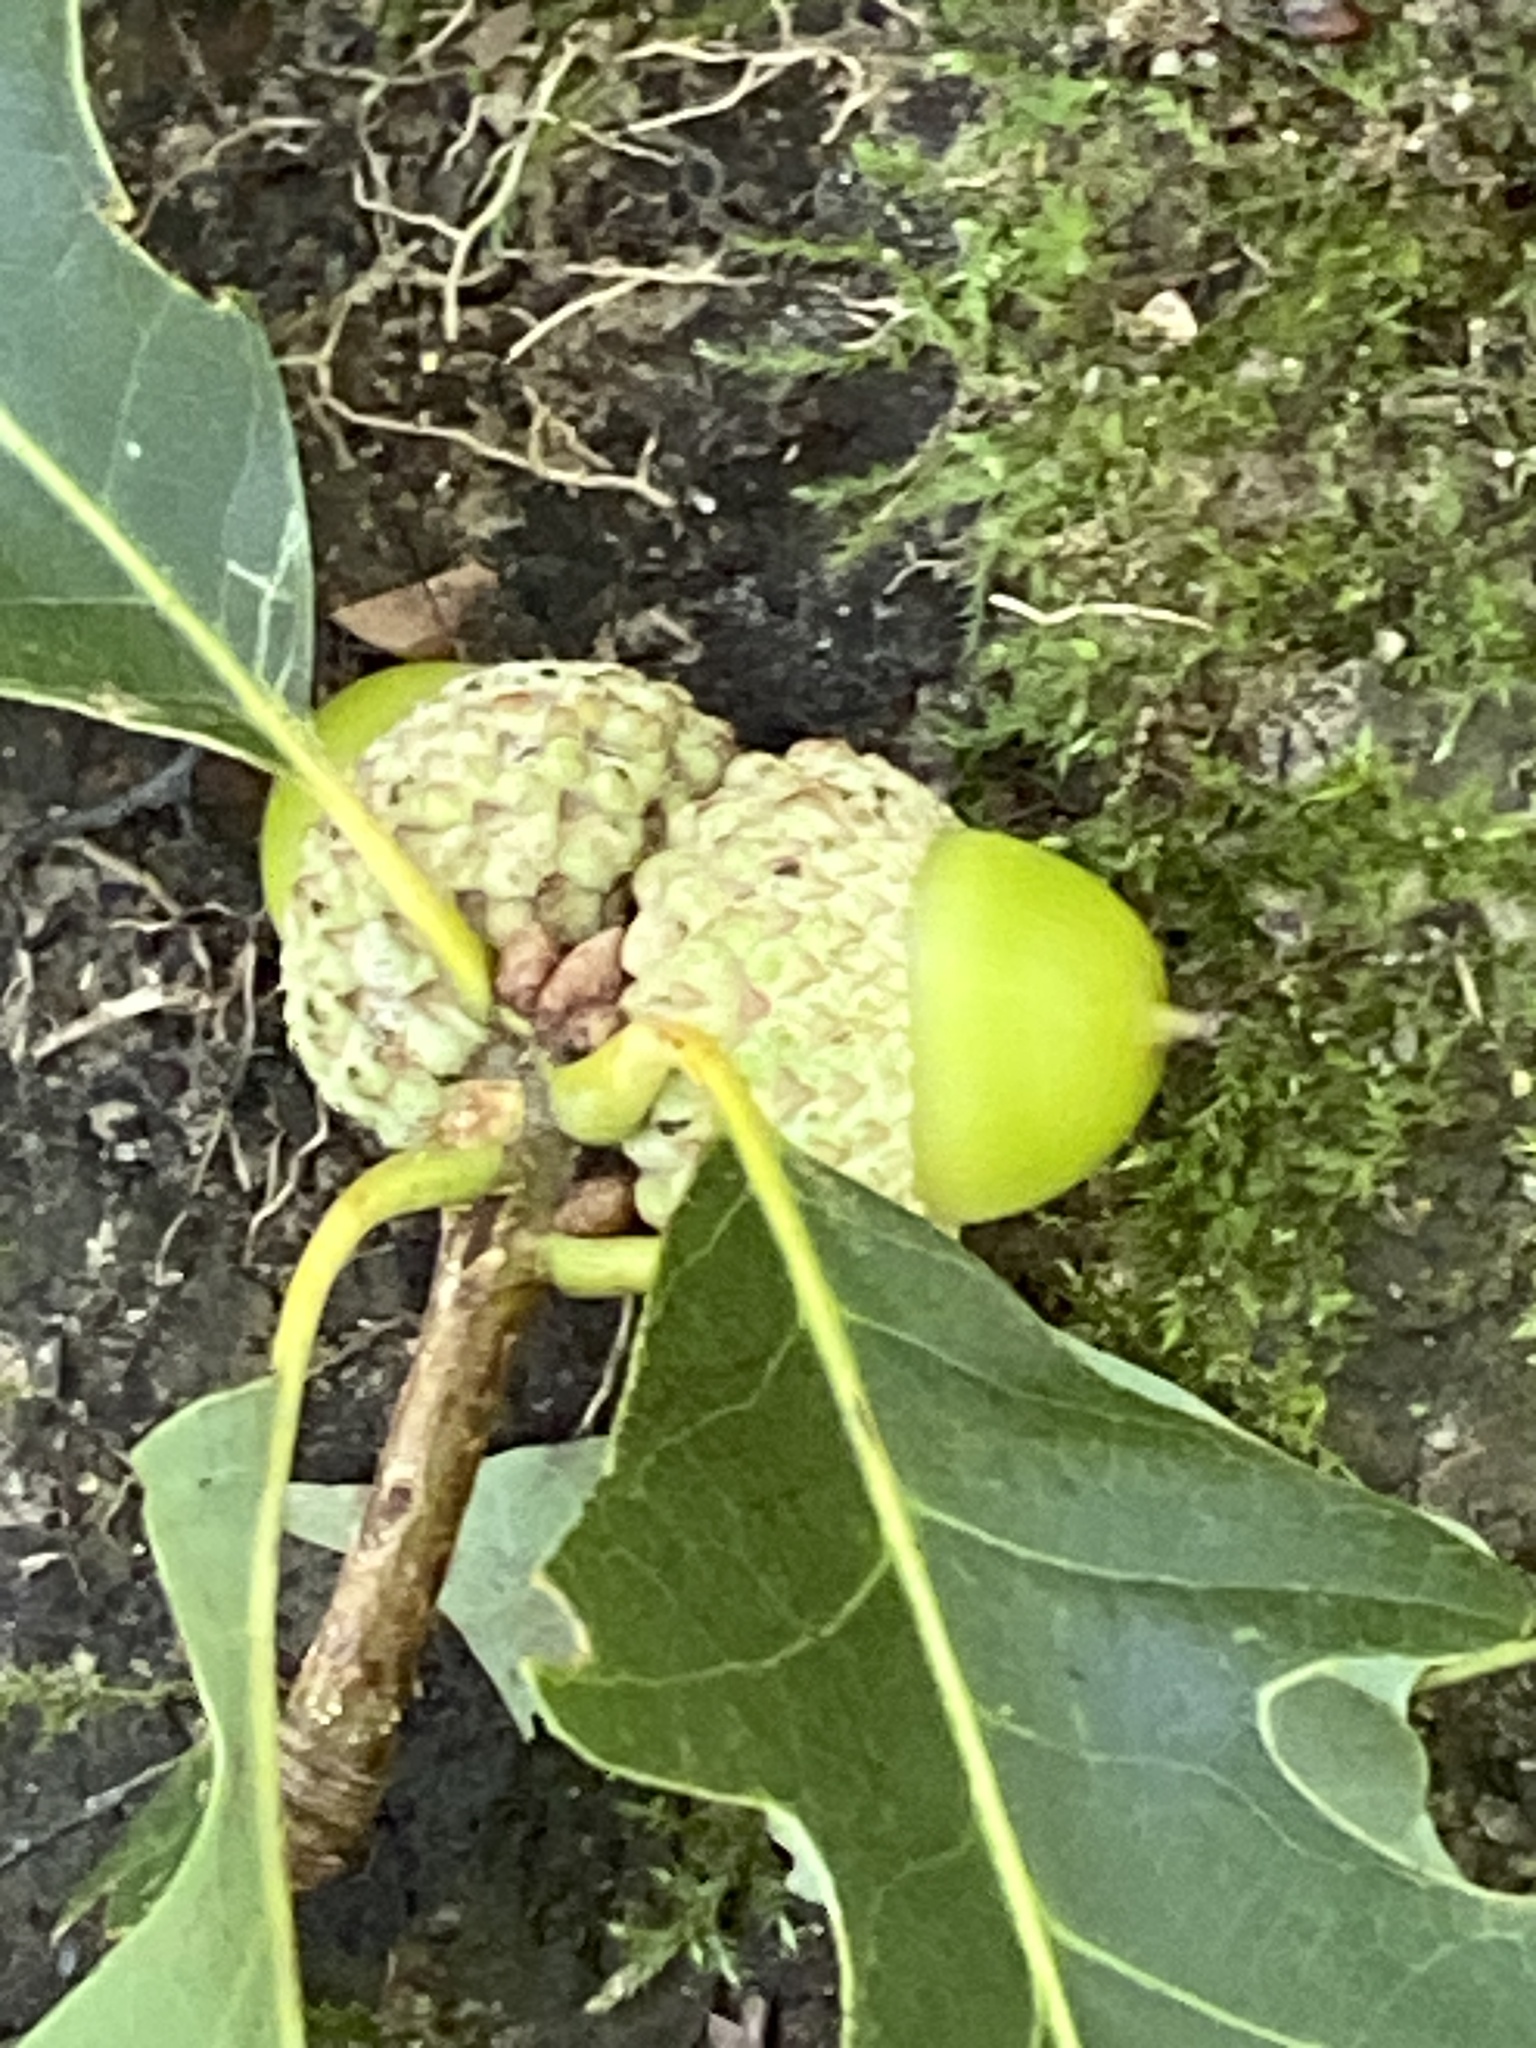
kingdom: Plantae
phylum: Tracheophyta
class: Magnoliopsida
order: Fagales
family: Fagaceae
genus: Quercus
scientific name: Quercus alba
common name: White oak
